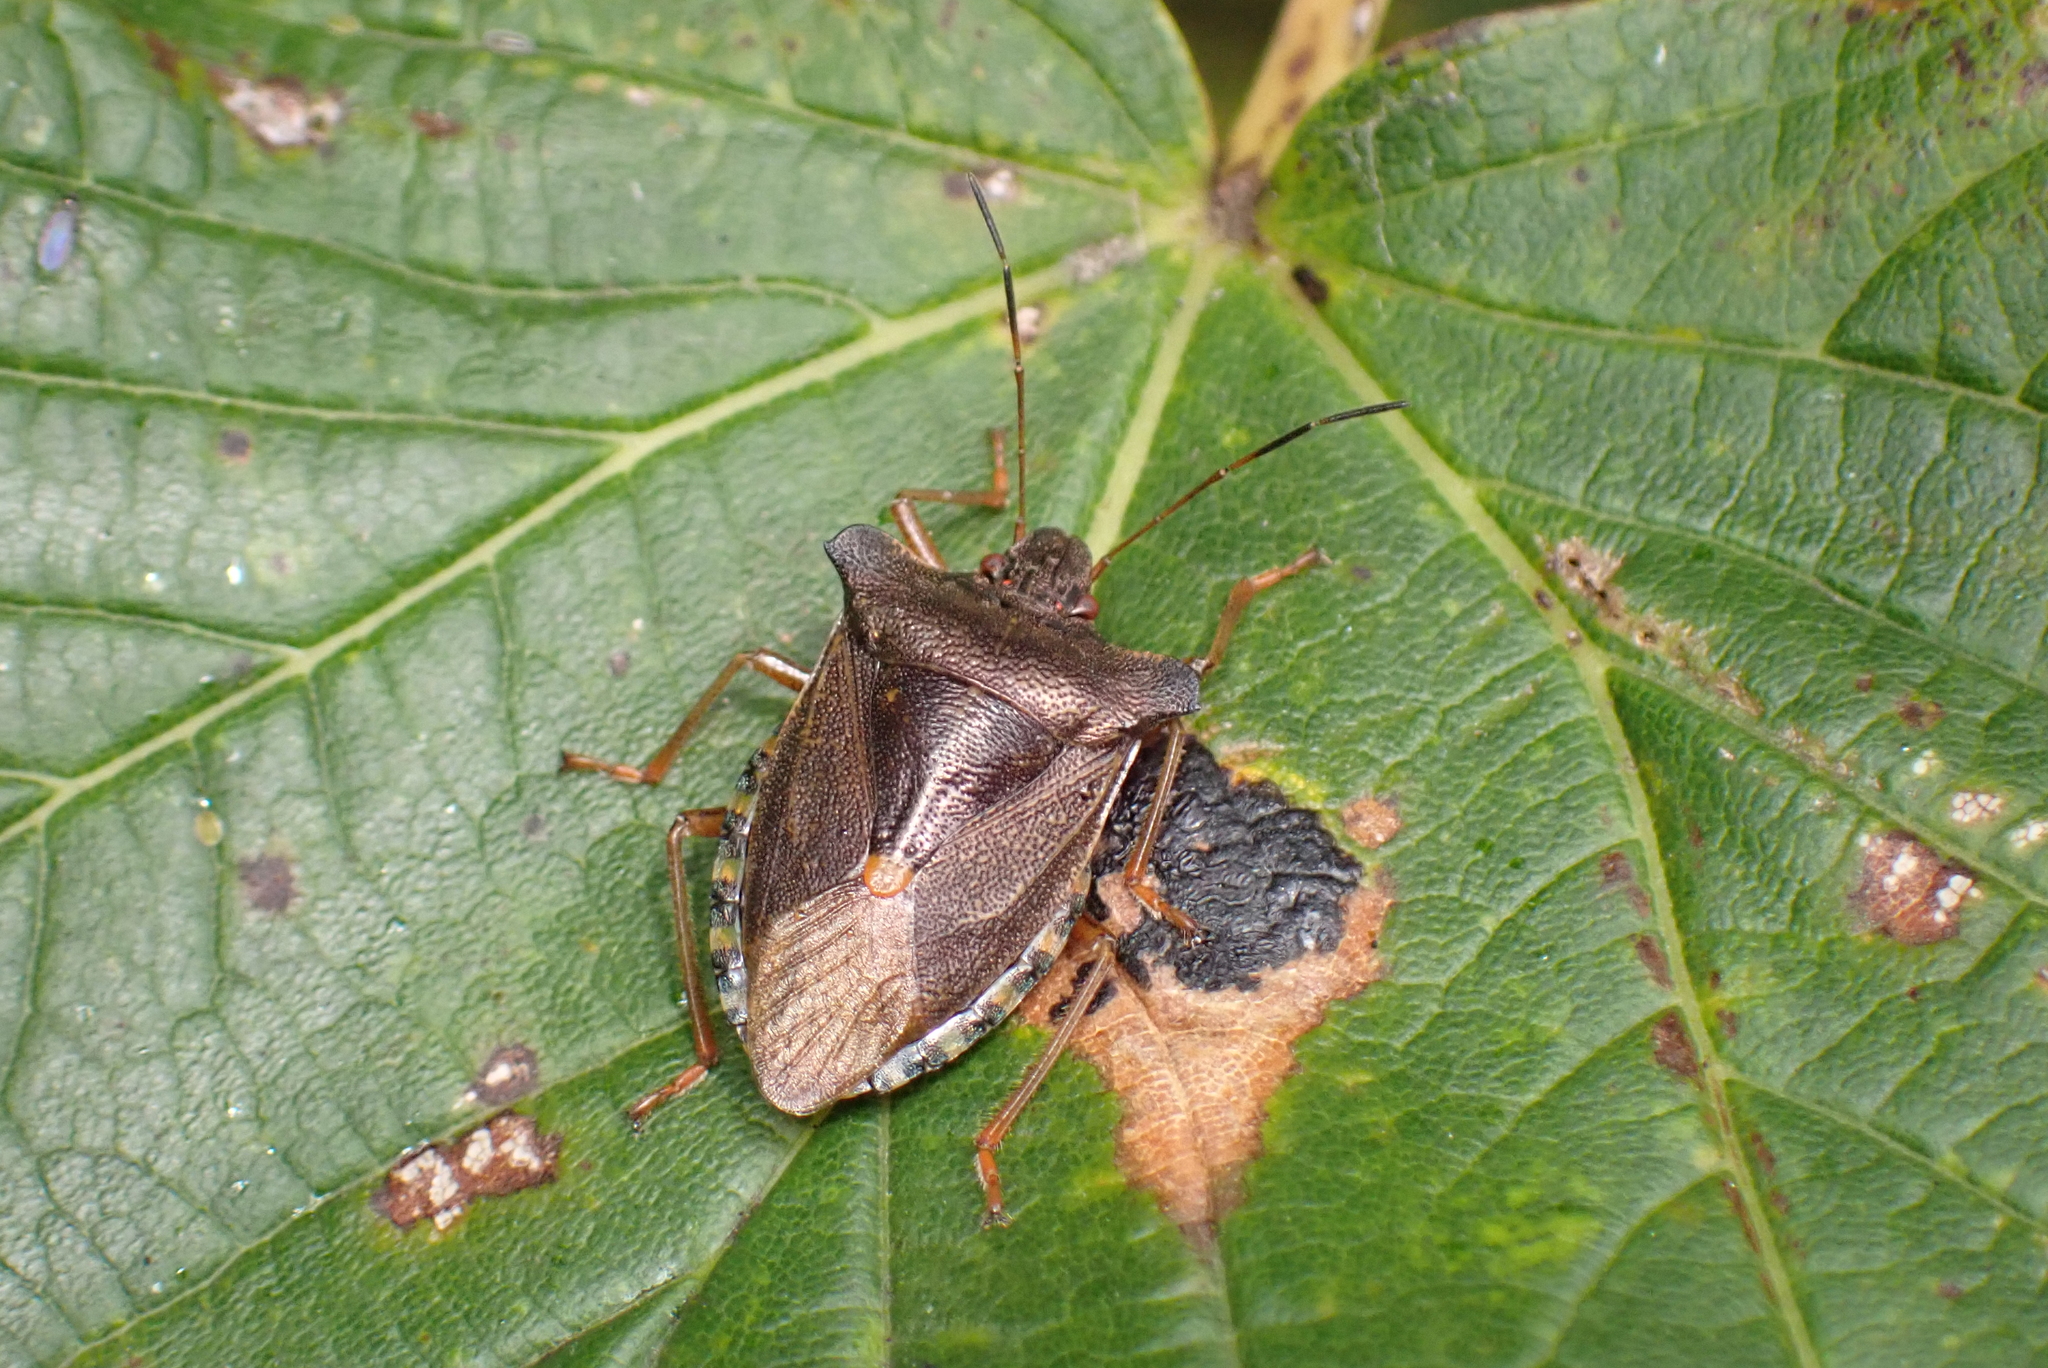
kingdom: Animalia
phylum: Arthropoda
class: Insecta
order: Hemiptera
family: Pentatomidae
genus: Pentatoma
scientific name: Pentatoma rufipes
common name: Forest bug
